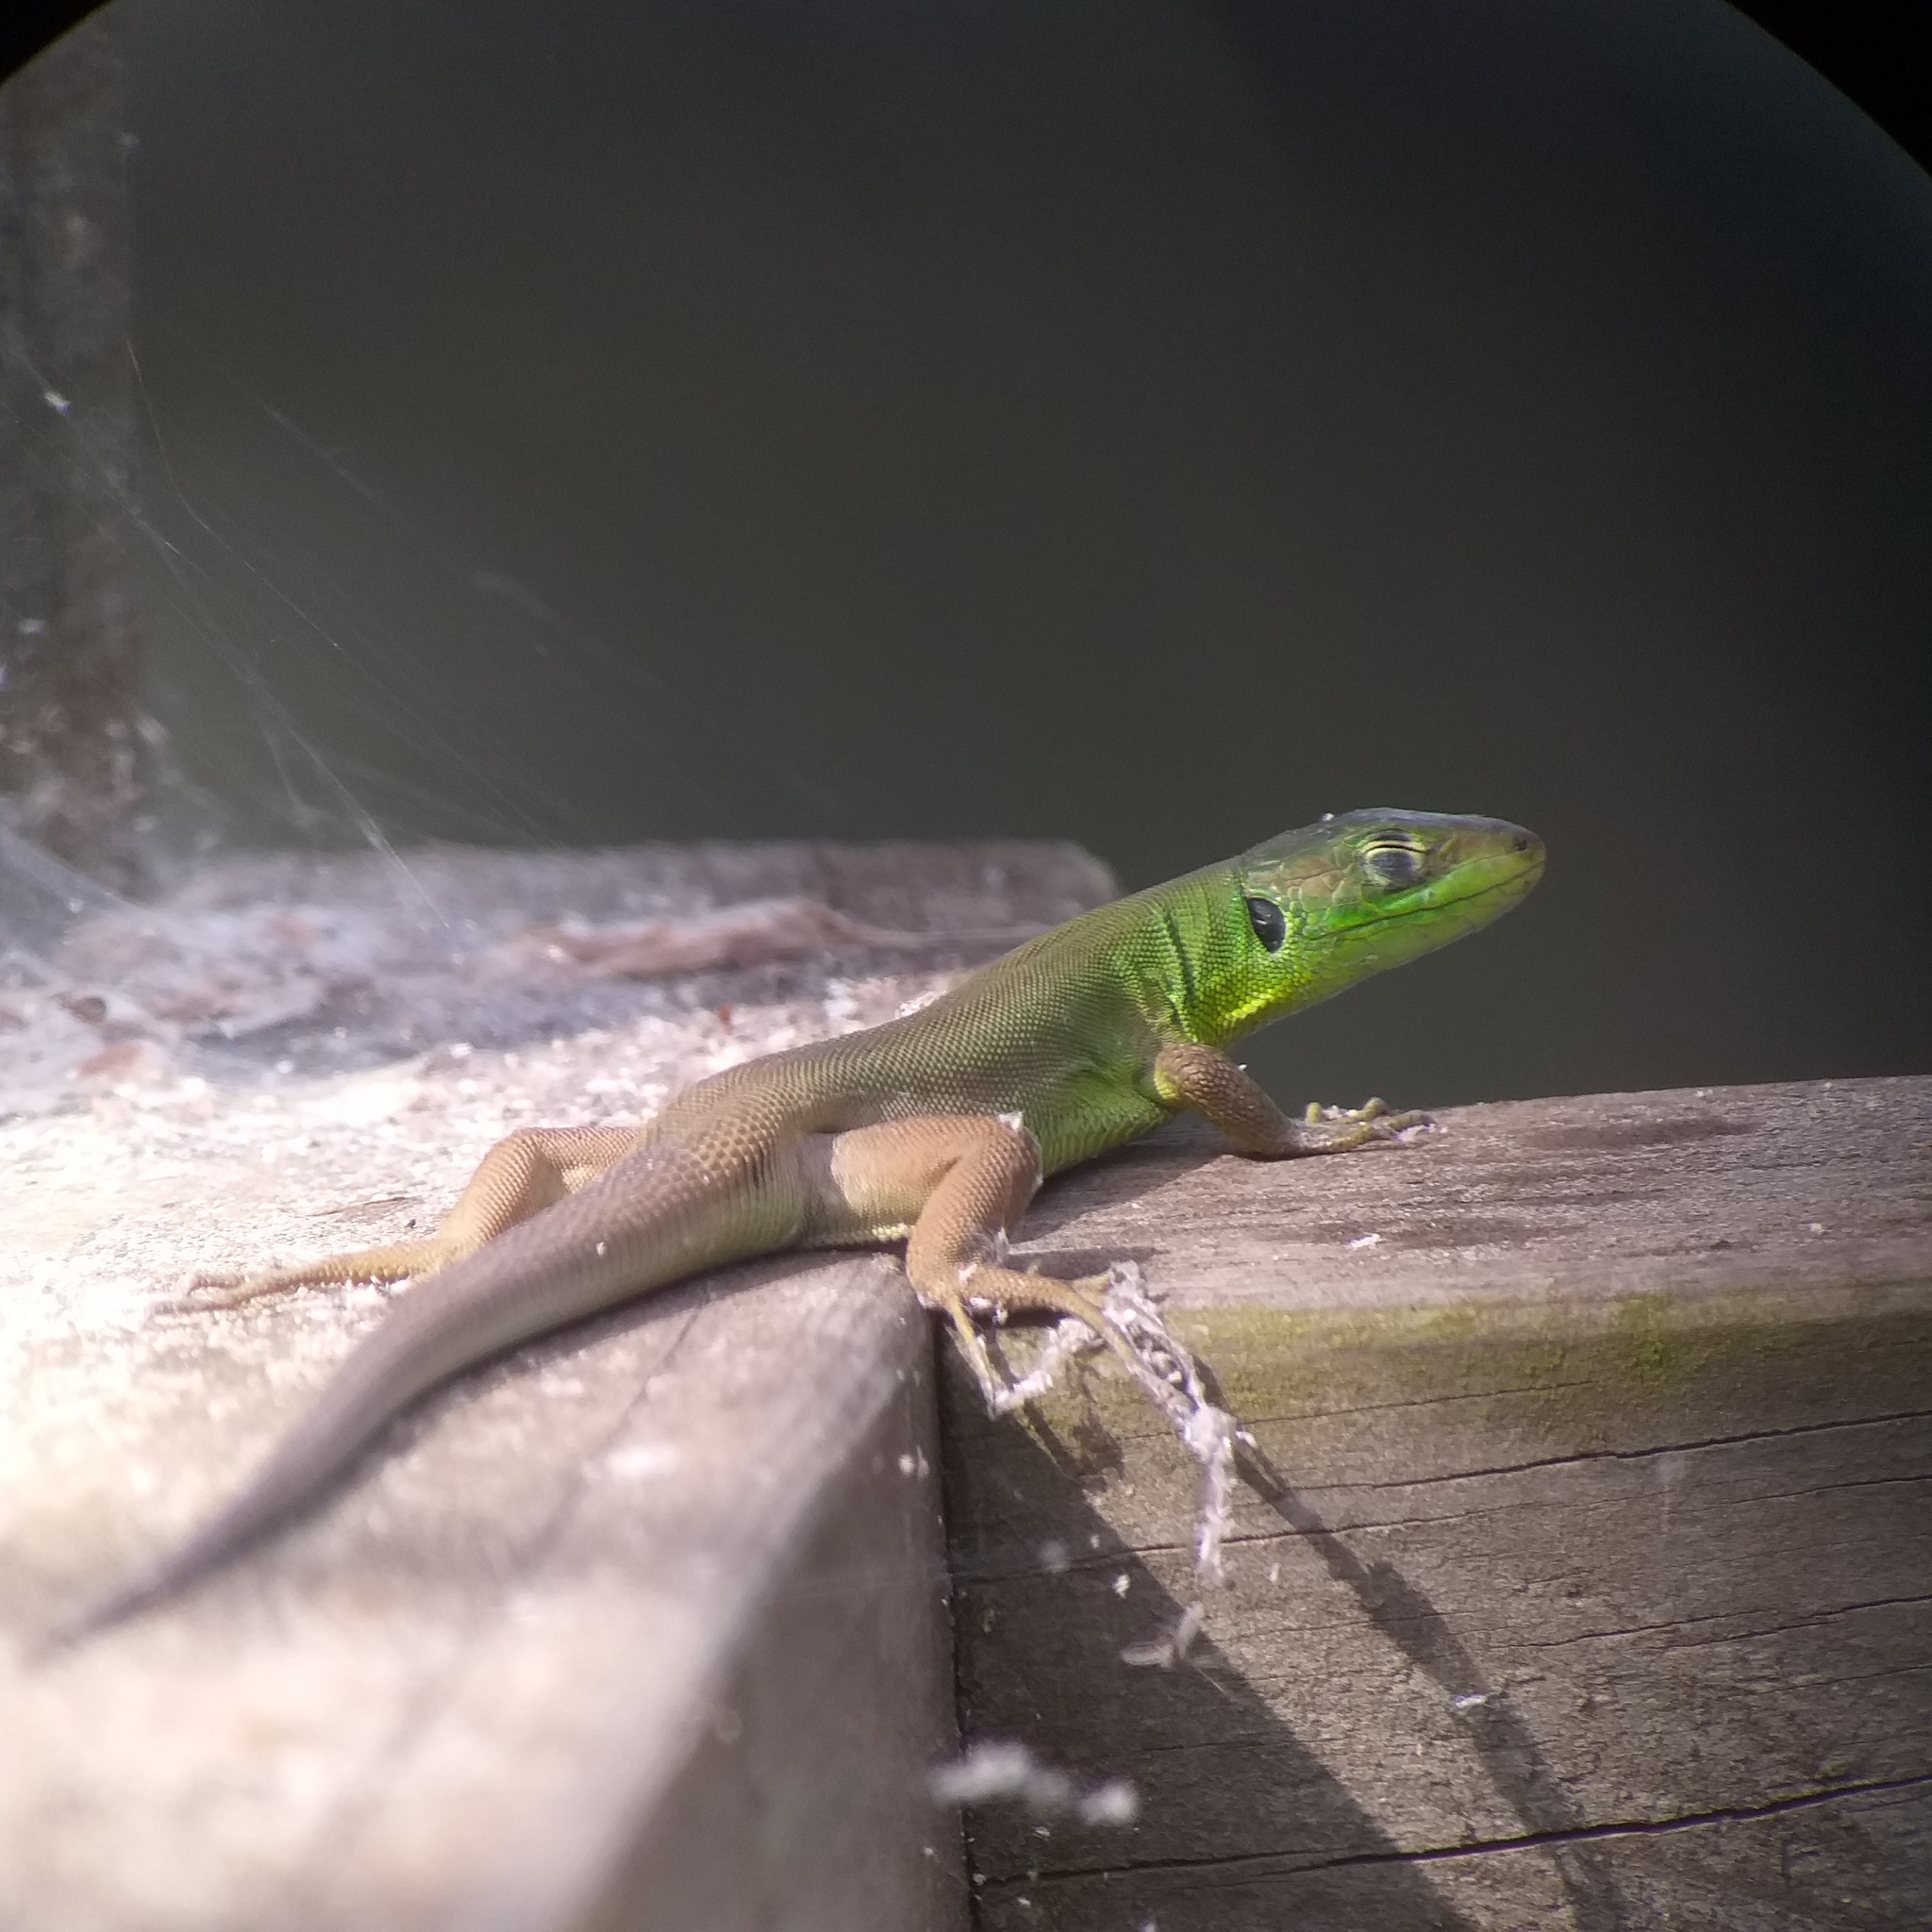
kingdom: Animalia
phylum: Chordata
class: Squamata
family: Lacertidae
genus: Lacerta
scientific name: Lacerta bilineata
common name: Western green lizard
